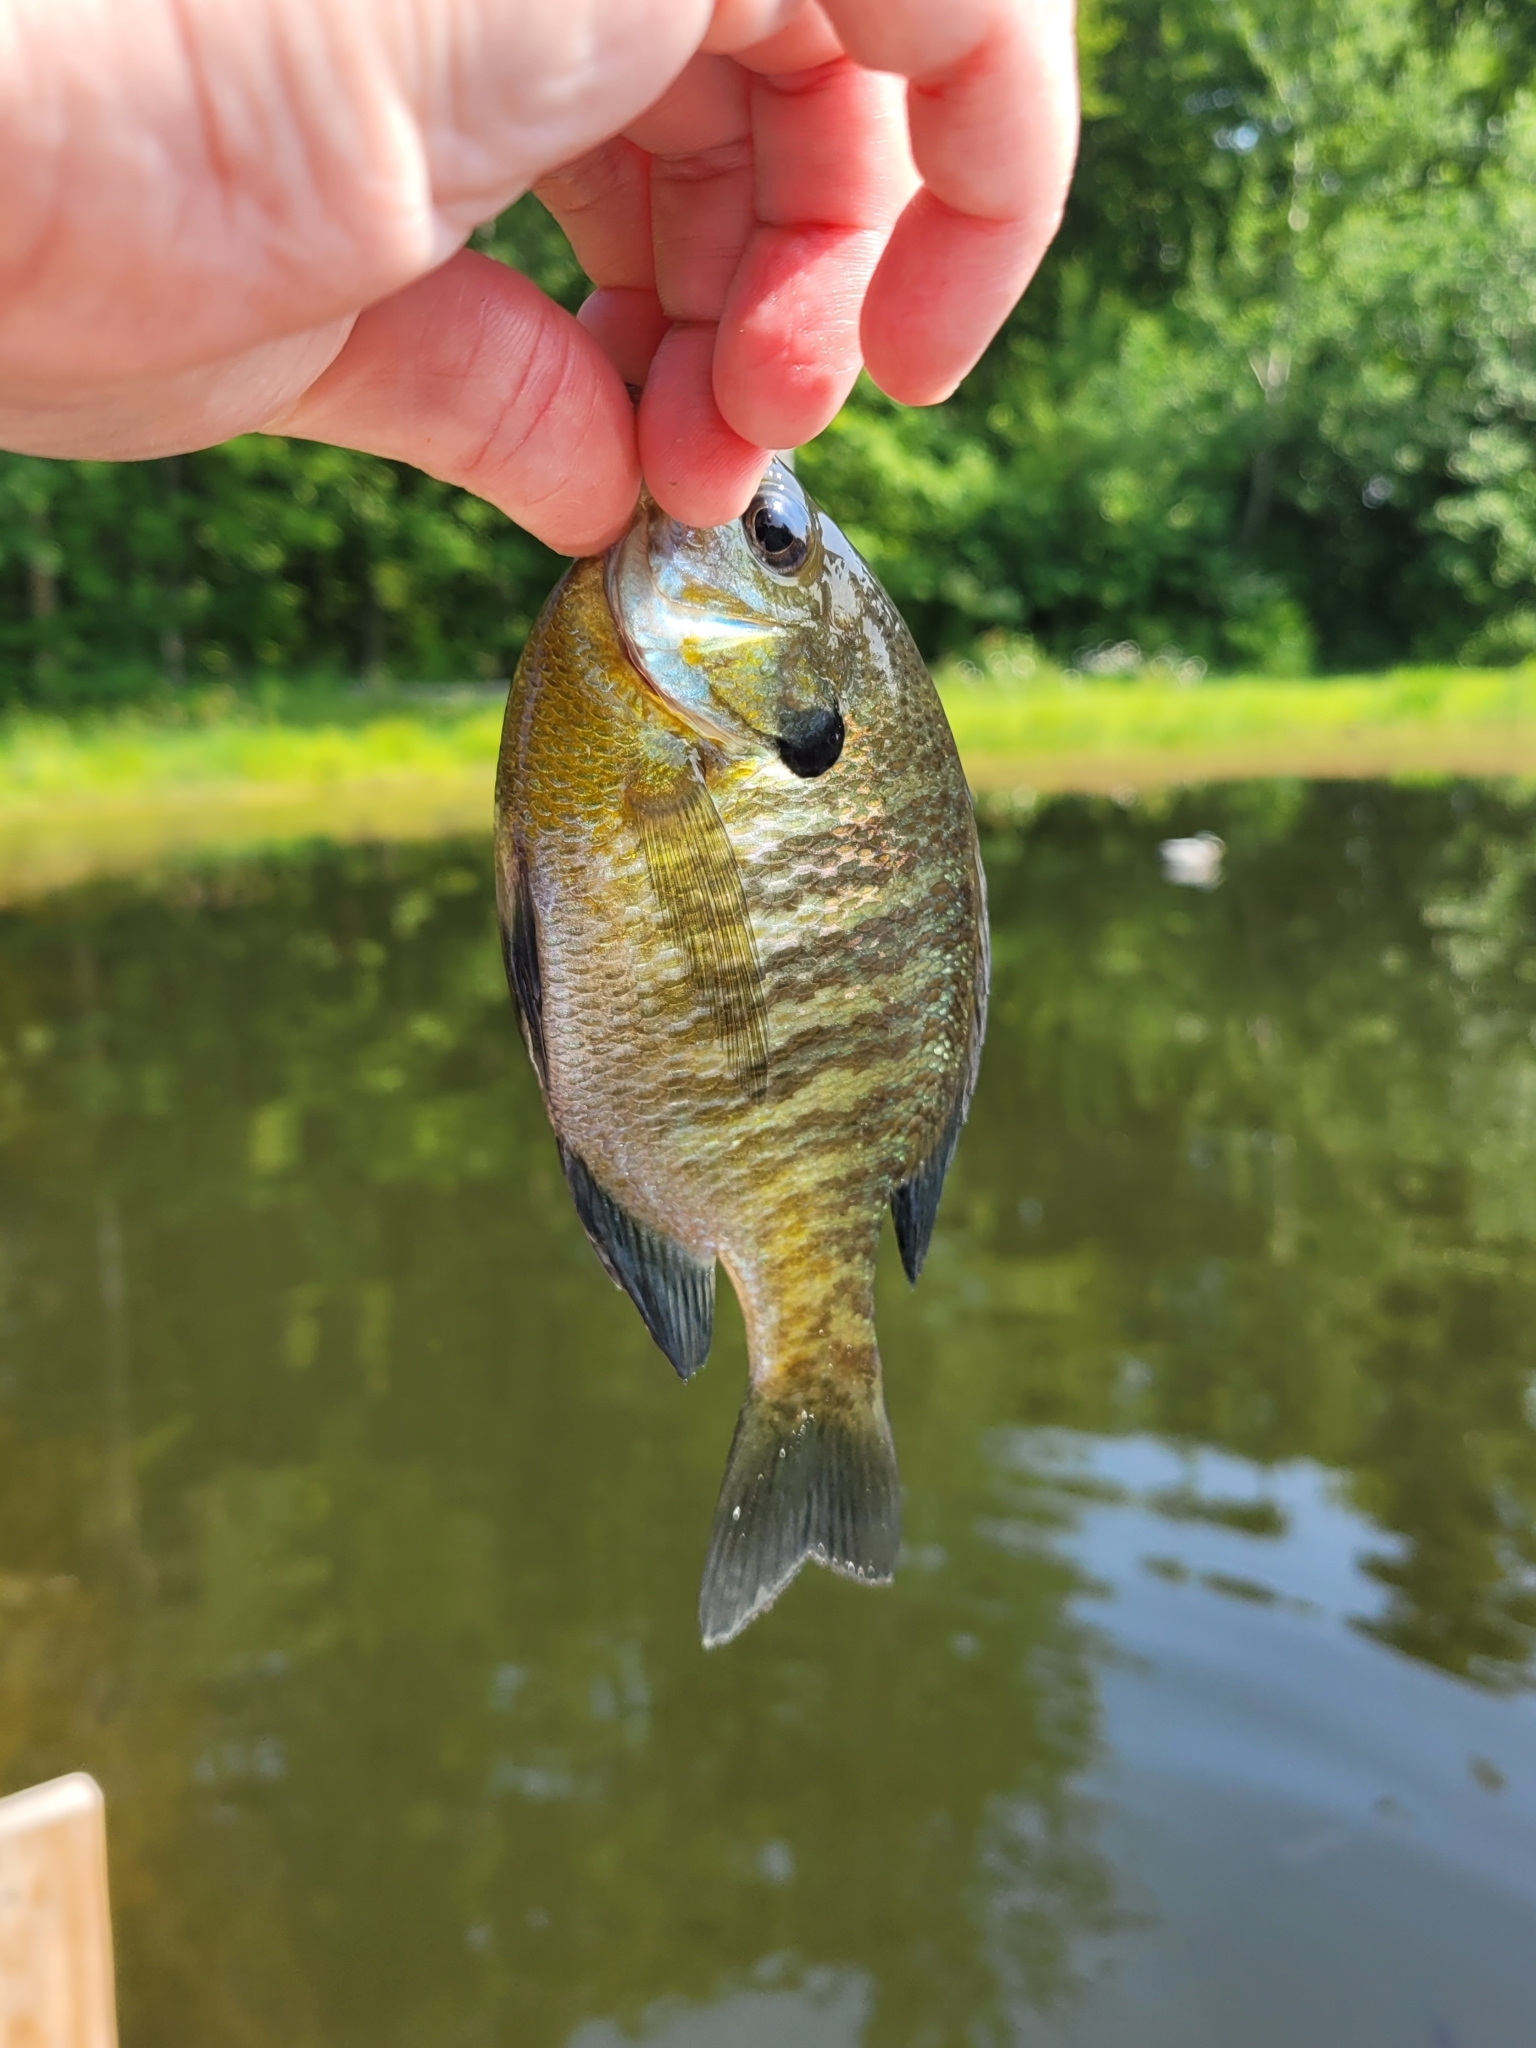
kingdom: Animalia
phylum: Chordata
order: Perciformes
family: Centrarchidae
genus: Lepomis
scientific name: Lepomis macrochirus
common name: Bluegill
